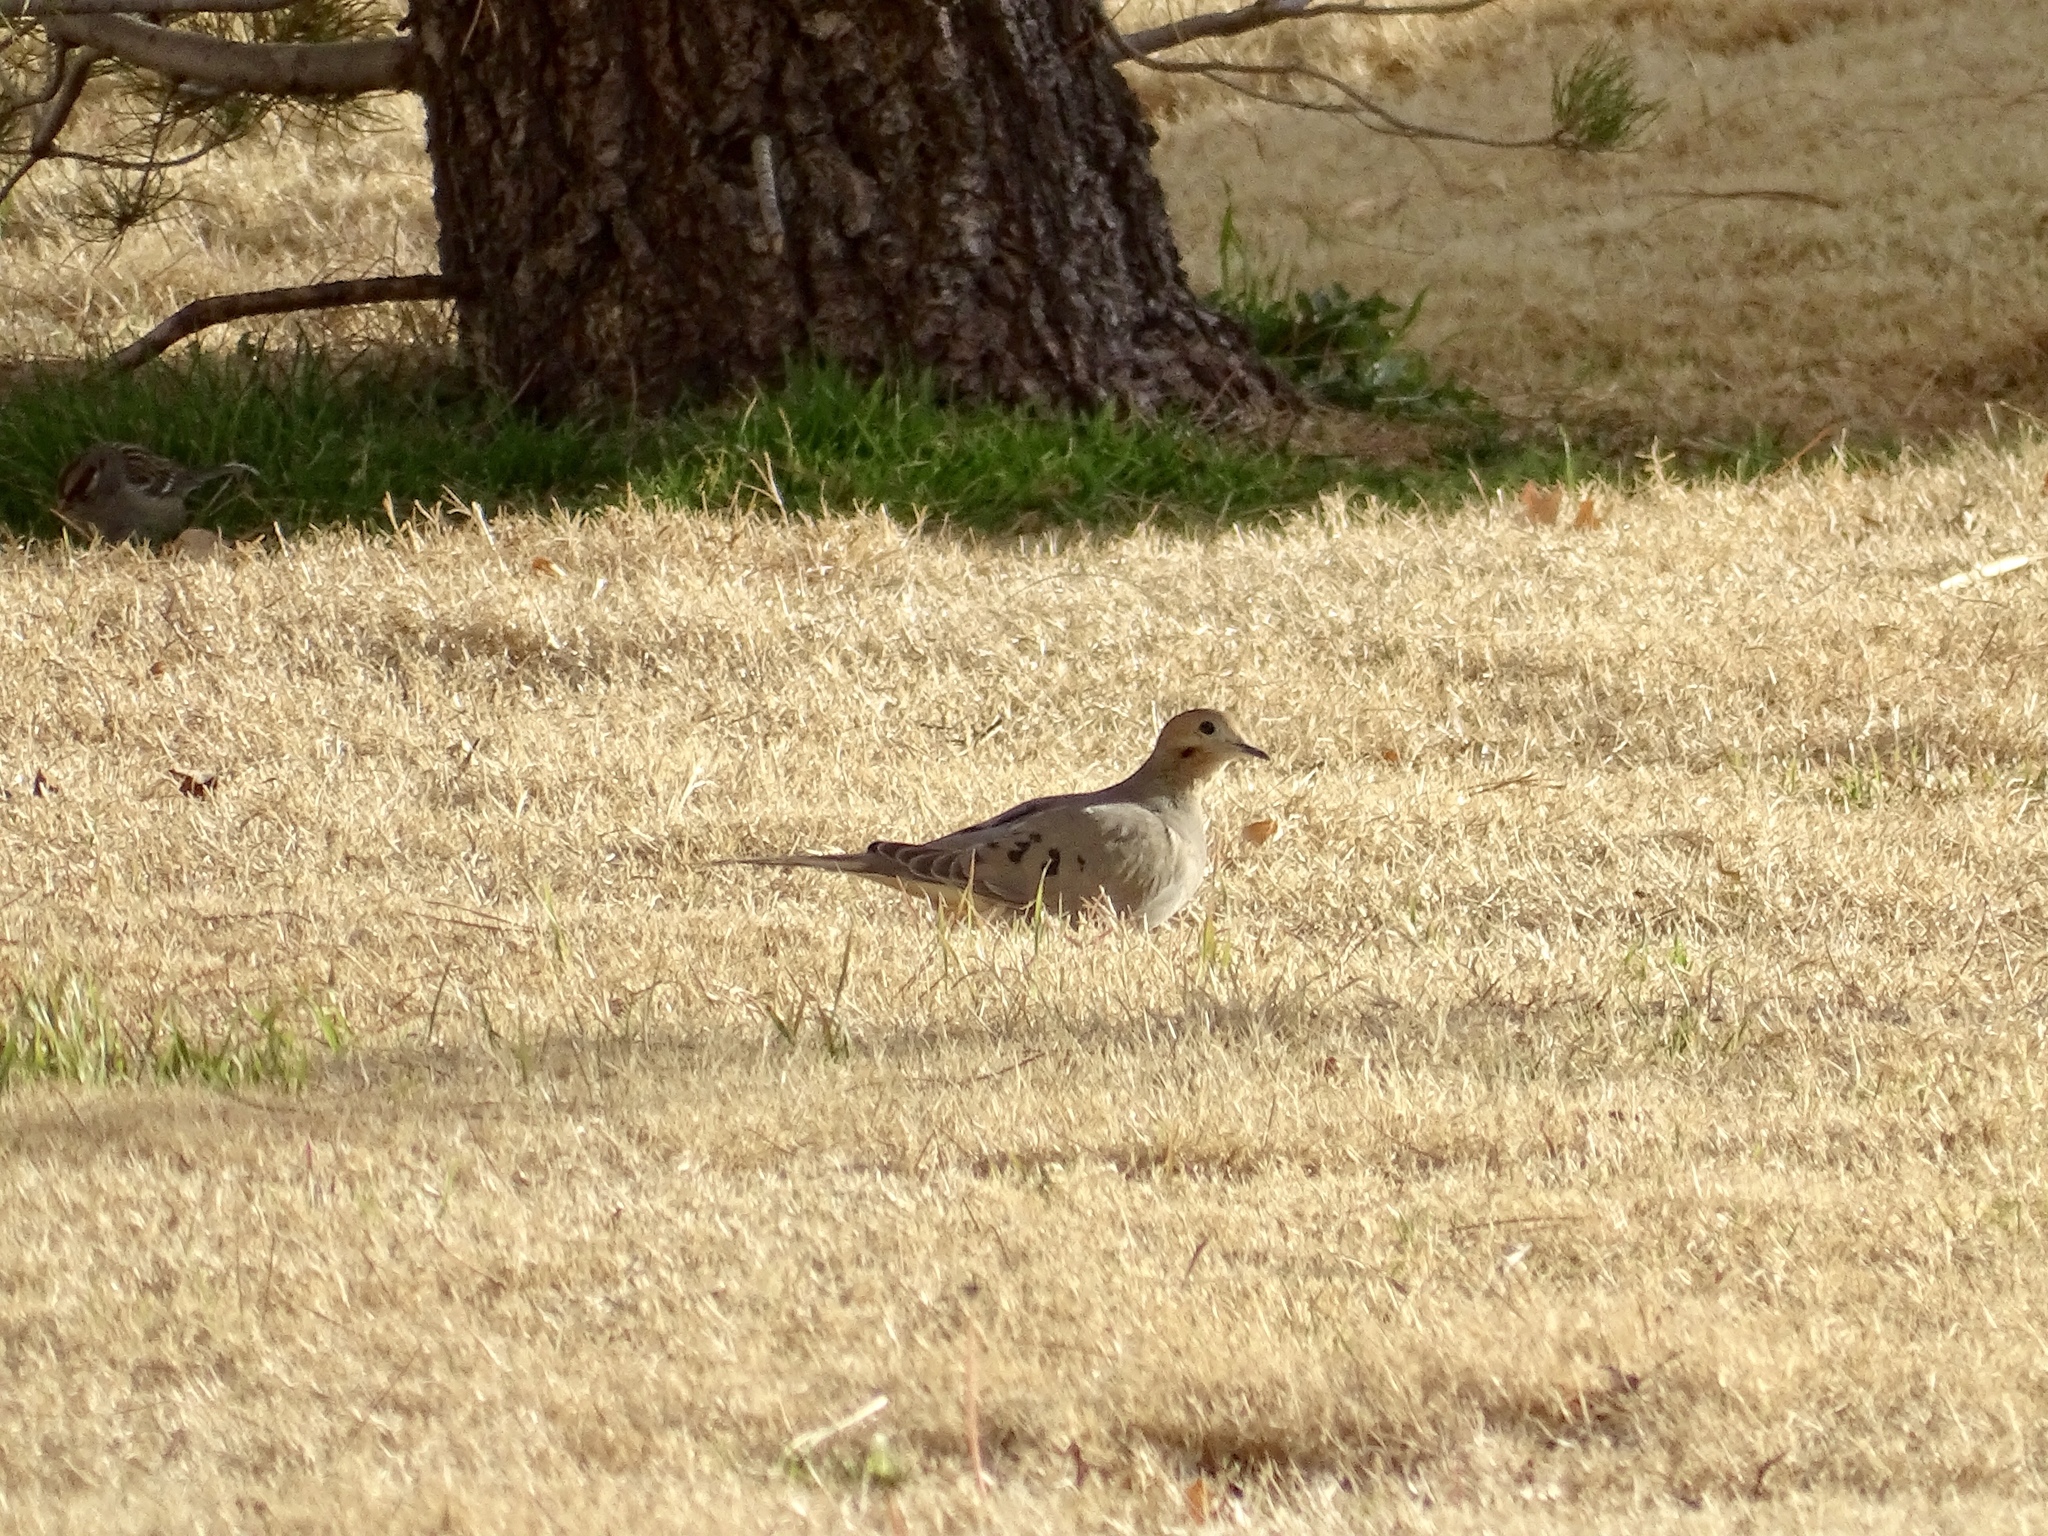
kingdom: Animalia
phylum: Chordata
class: Aves
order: Columbiformes
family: Columbidae
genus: Zenaida
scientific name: Zenaida macroura
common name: Mourning dove
